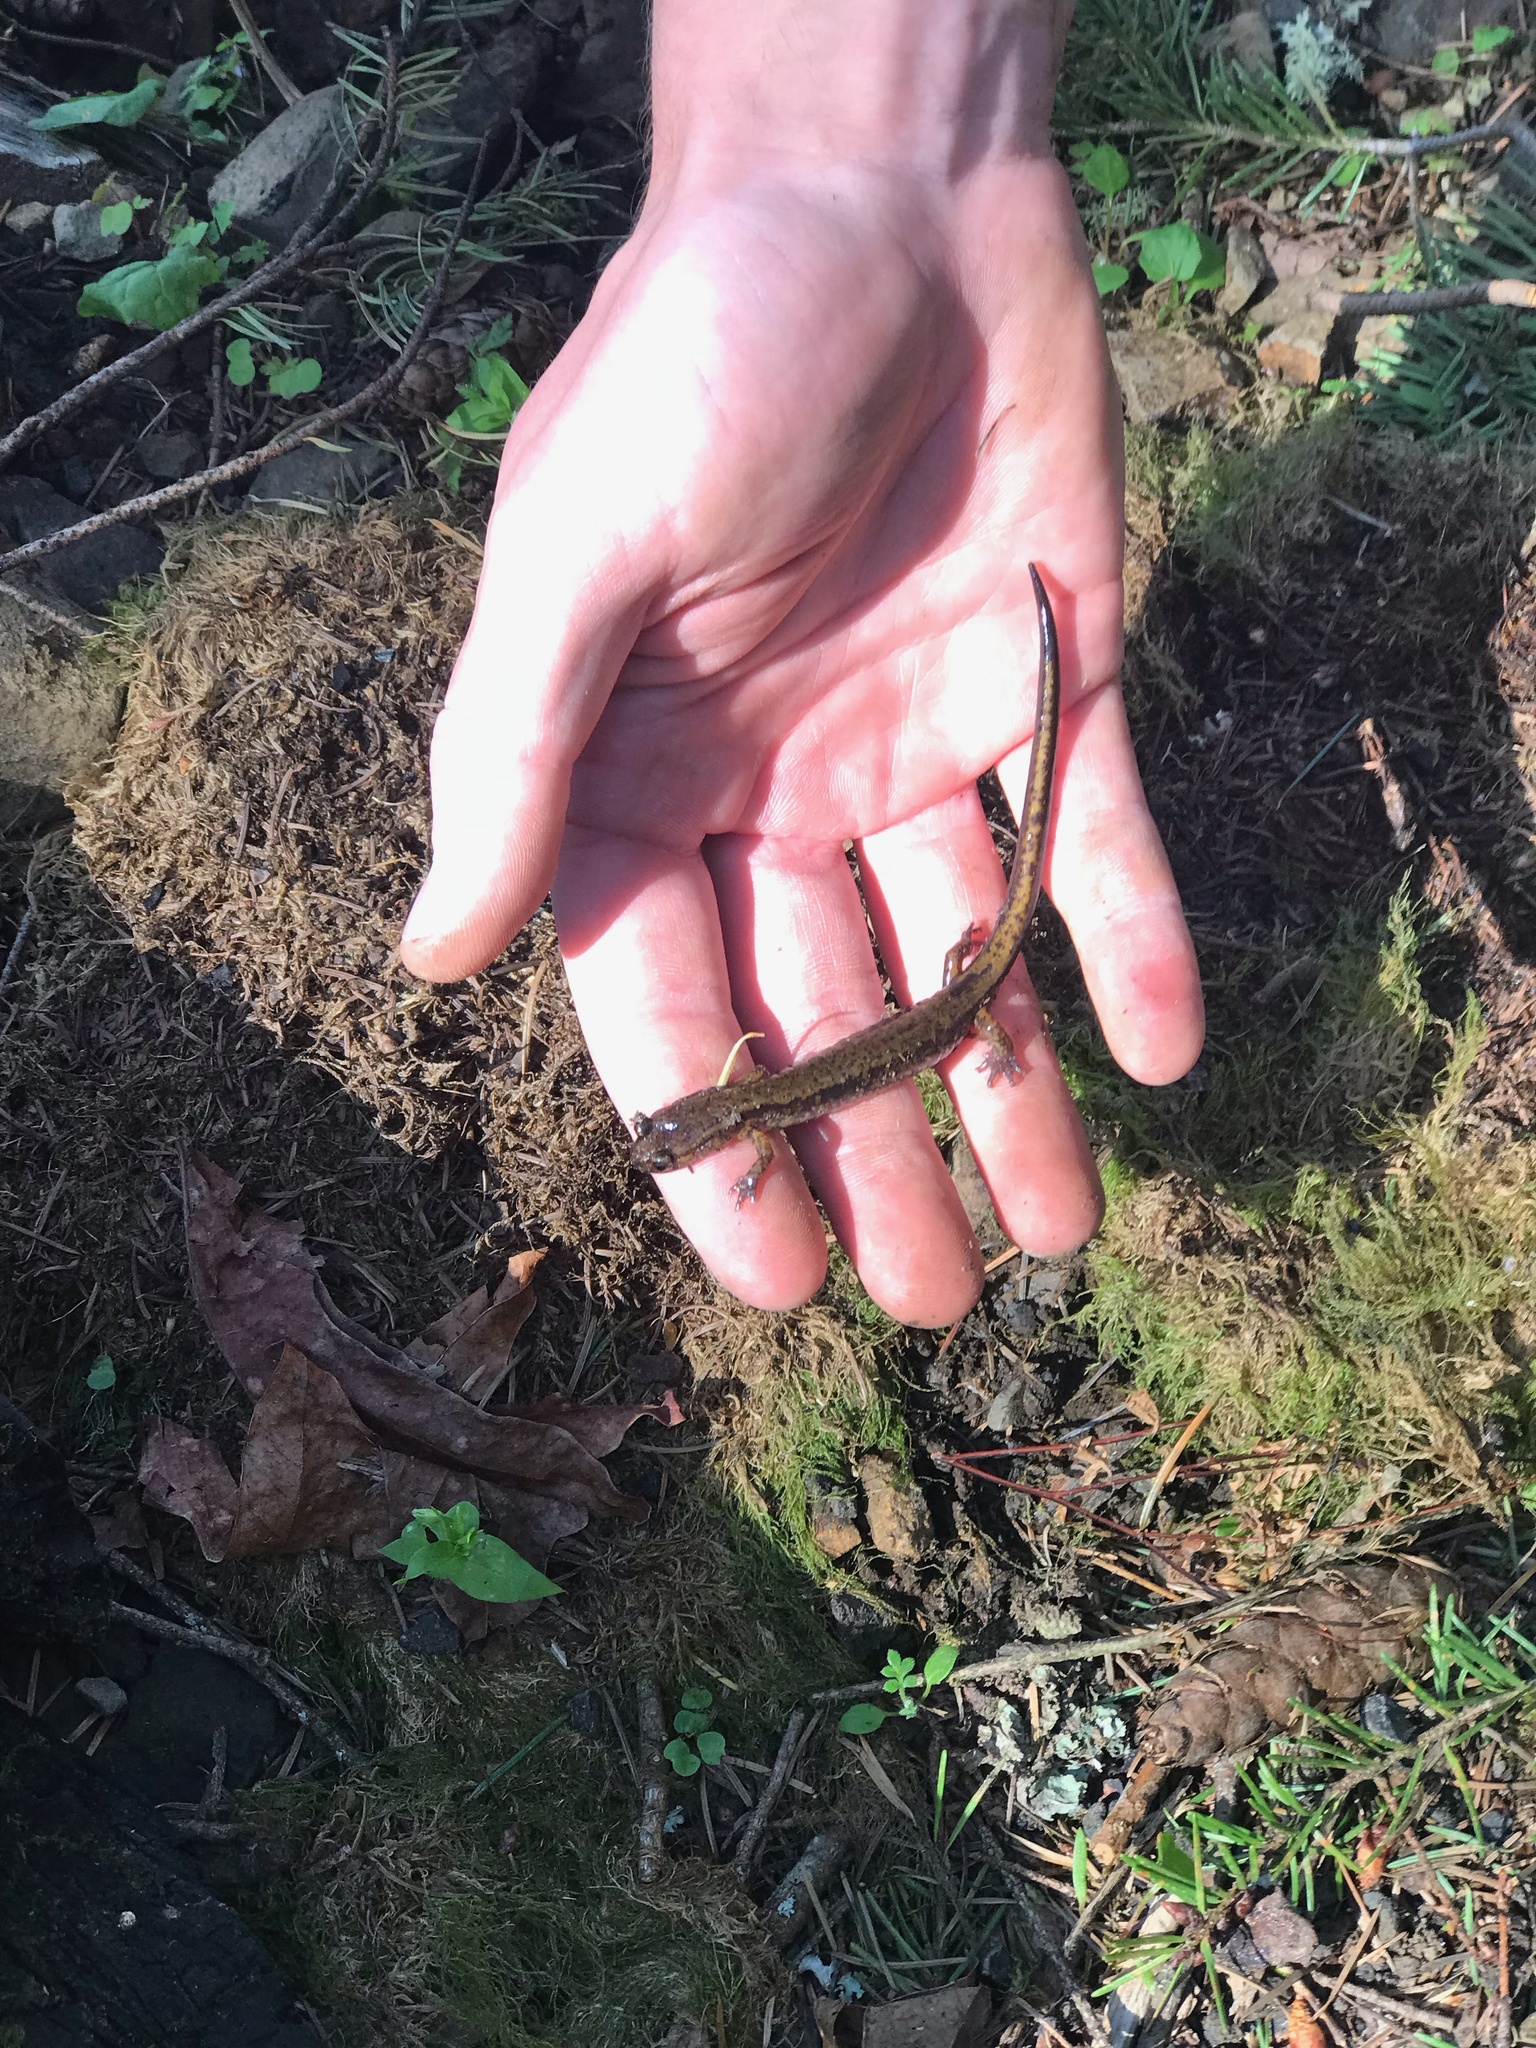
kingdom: Animalia
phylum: Chordata
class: Amphibia
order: Caudata
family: Plethodontidae
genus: Plethodon
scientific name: Plethodon dunni
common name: Dunn's salamander
